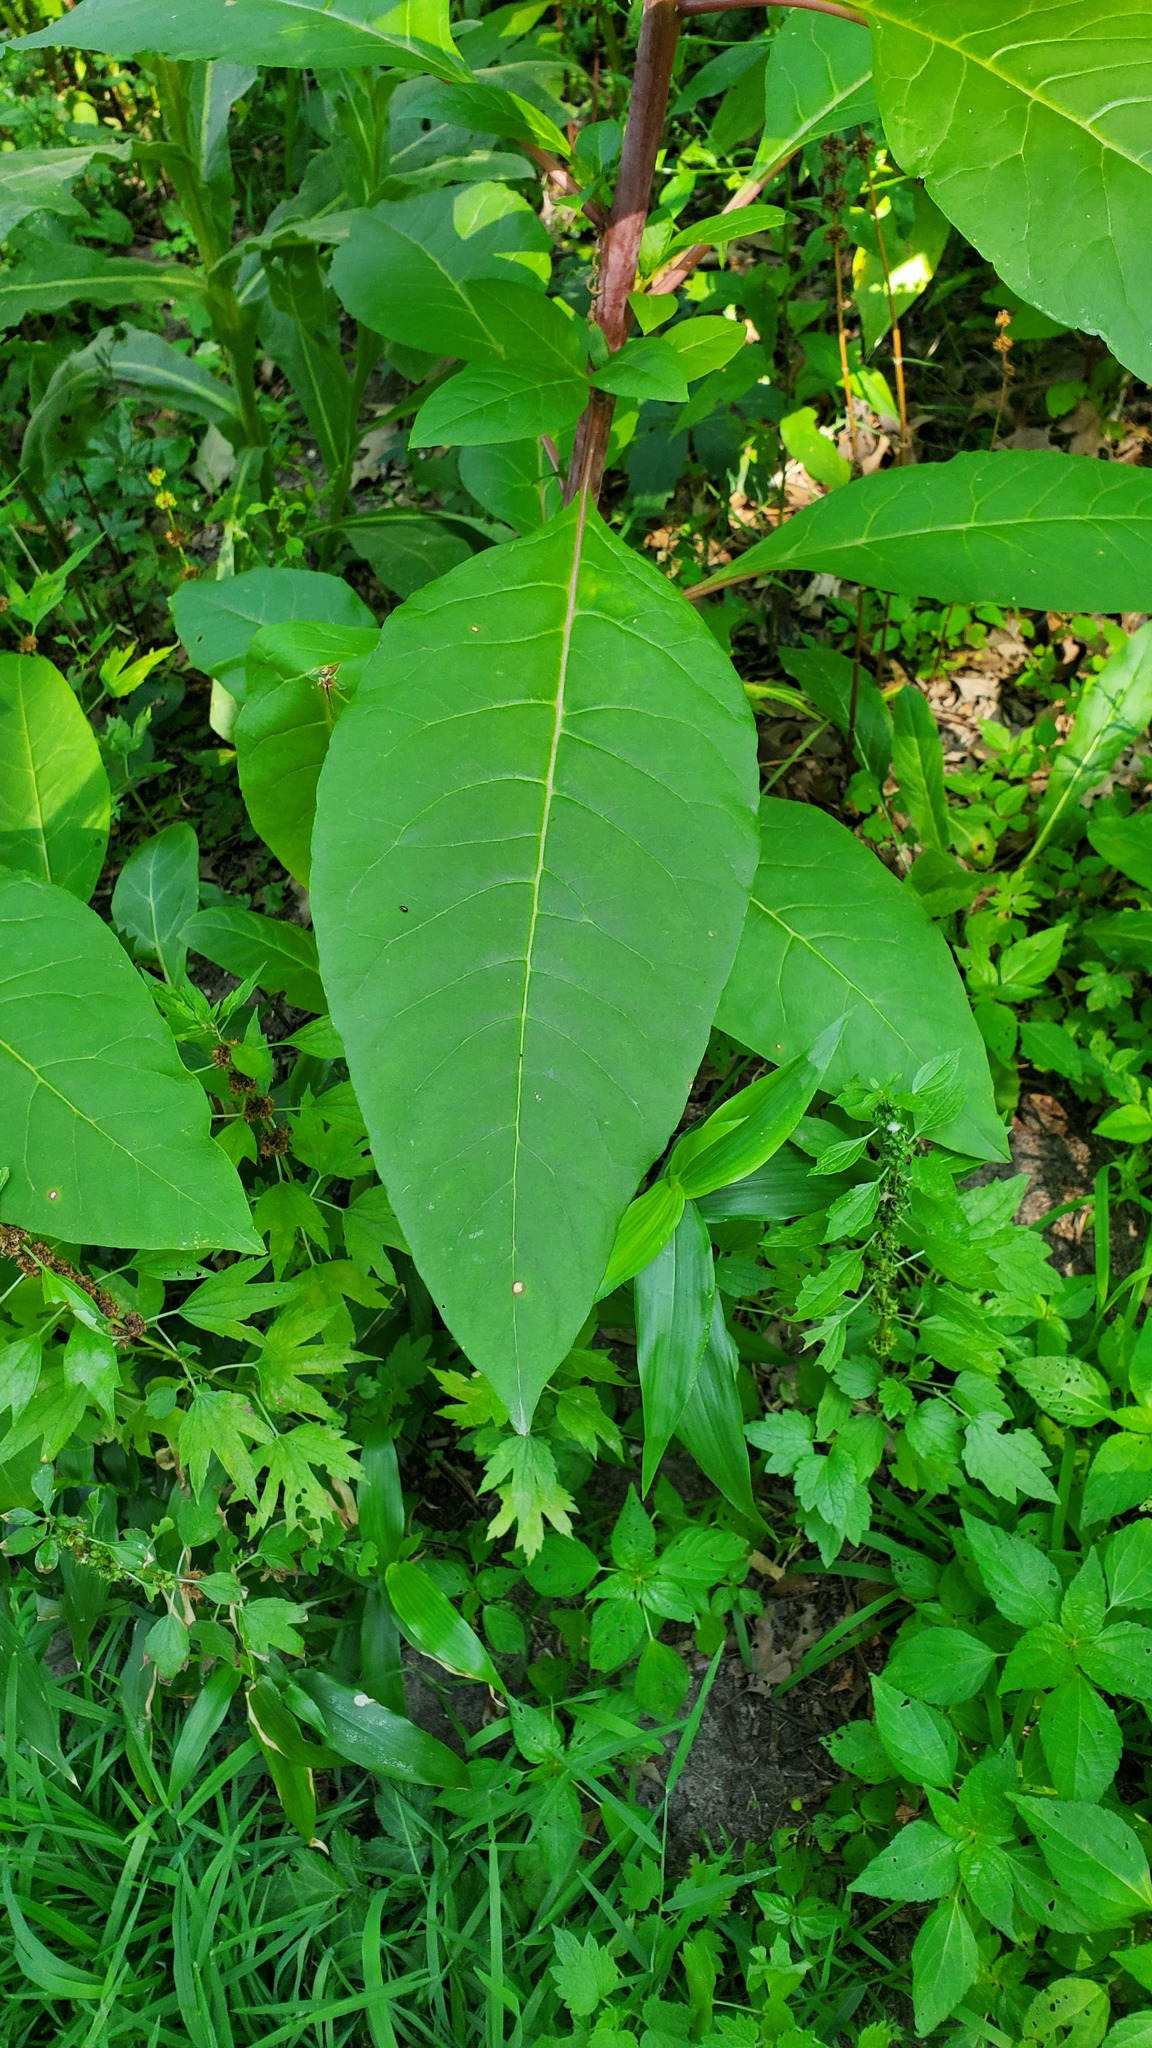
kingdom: Plantae
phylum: Tracheophyta
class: Magnoliopsida
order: Caryophyllales
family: Phytolaccaceae
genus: Phytolacca
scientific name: Phytolacca americana
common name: American pokeweed
